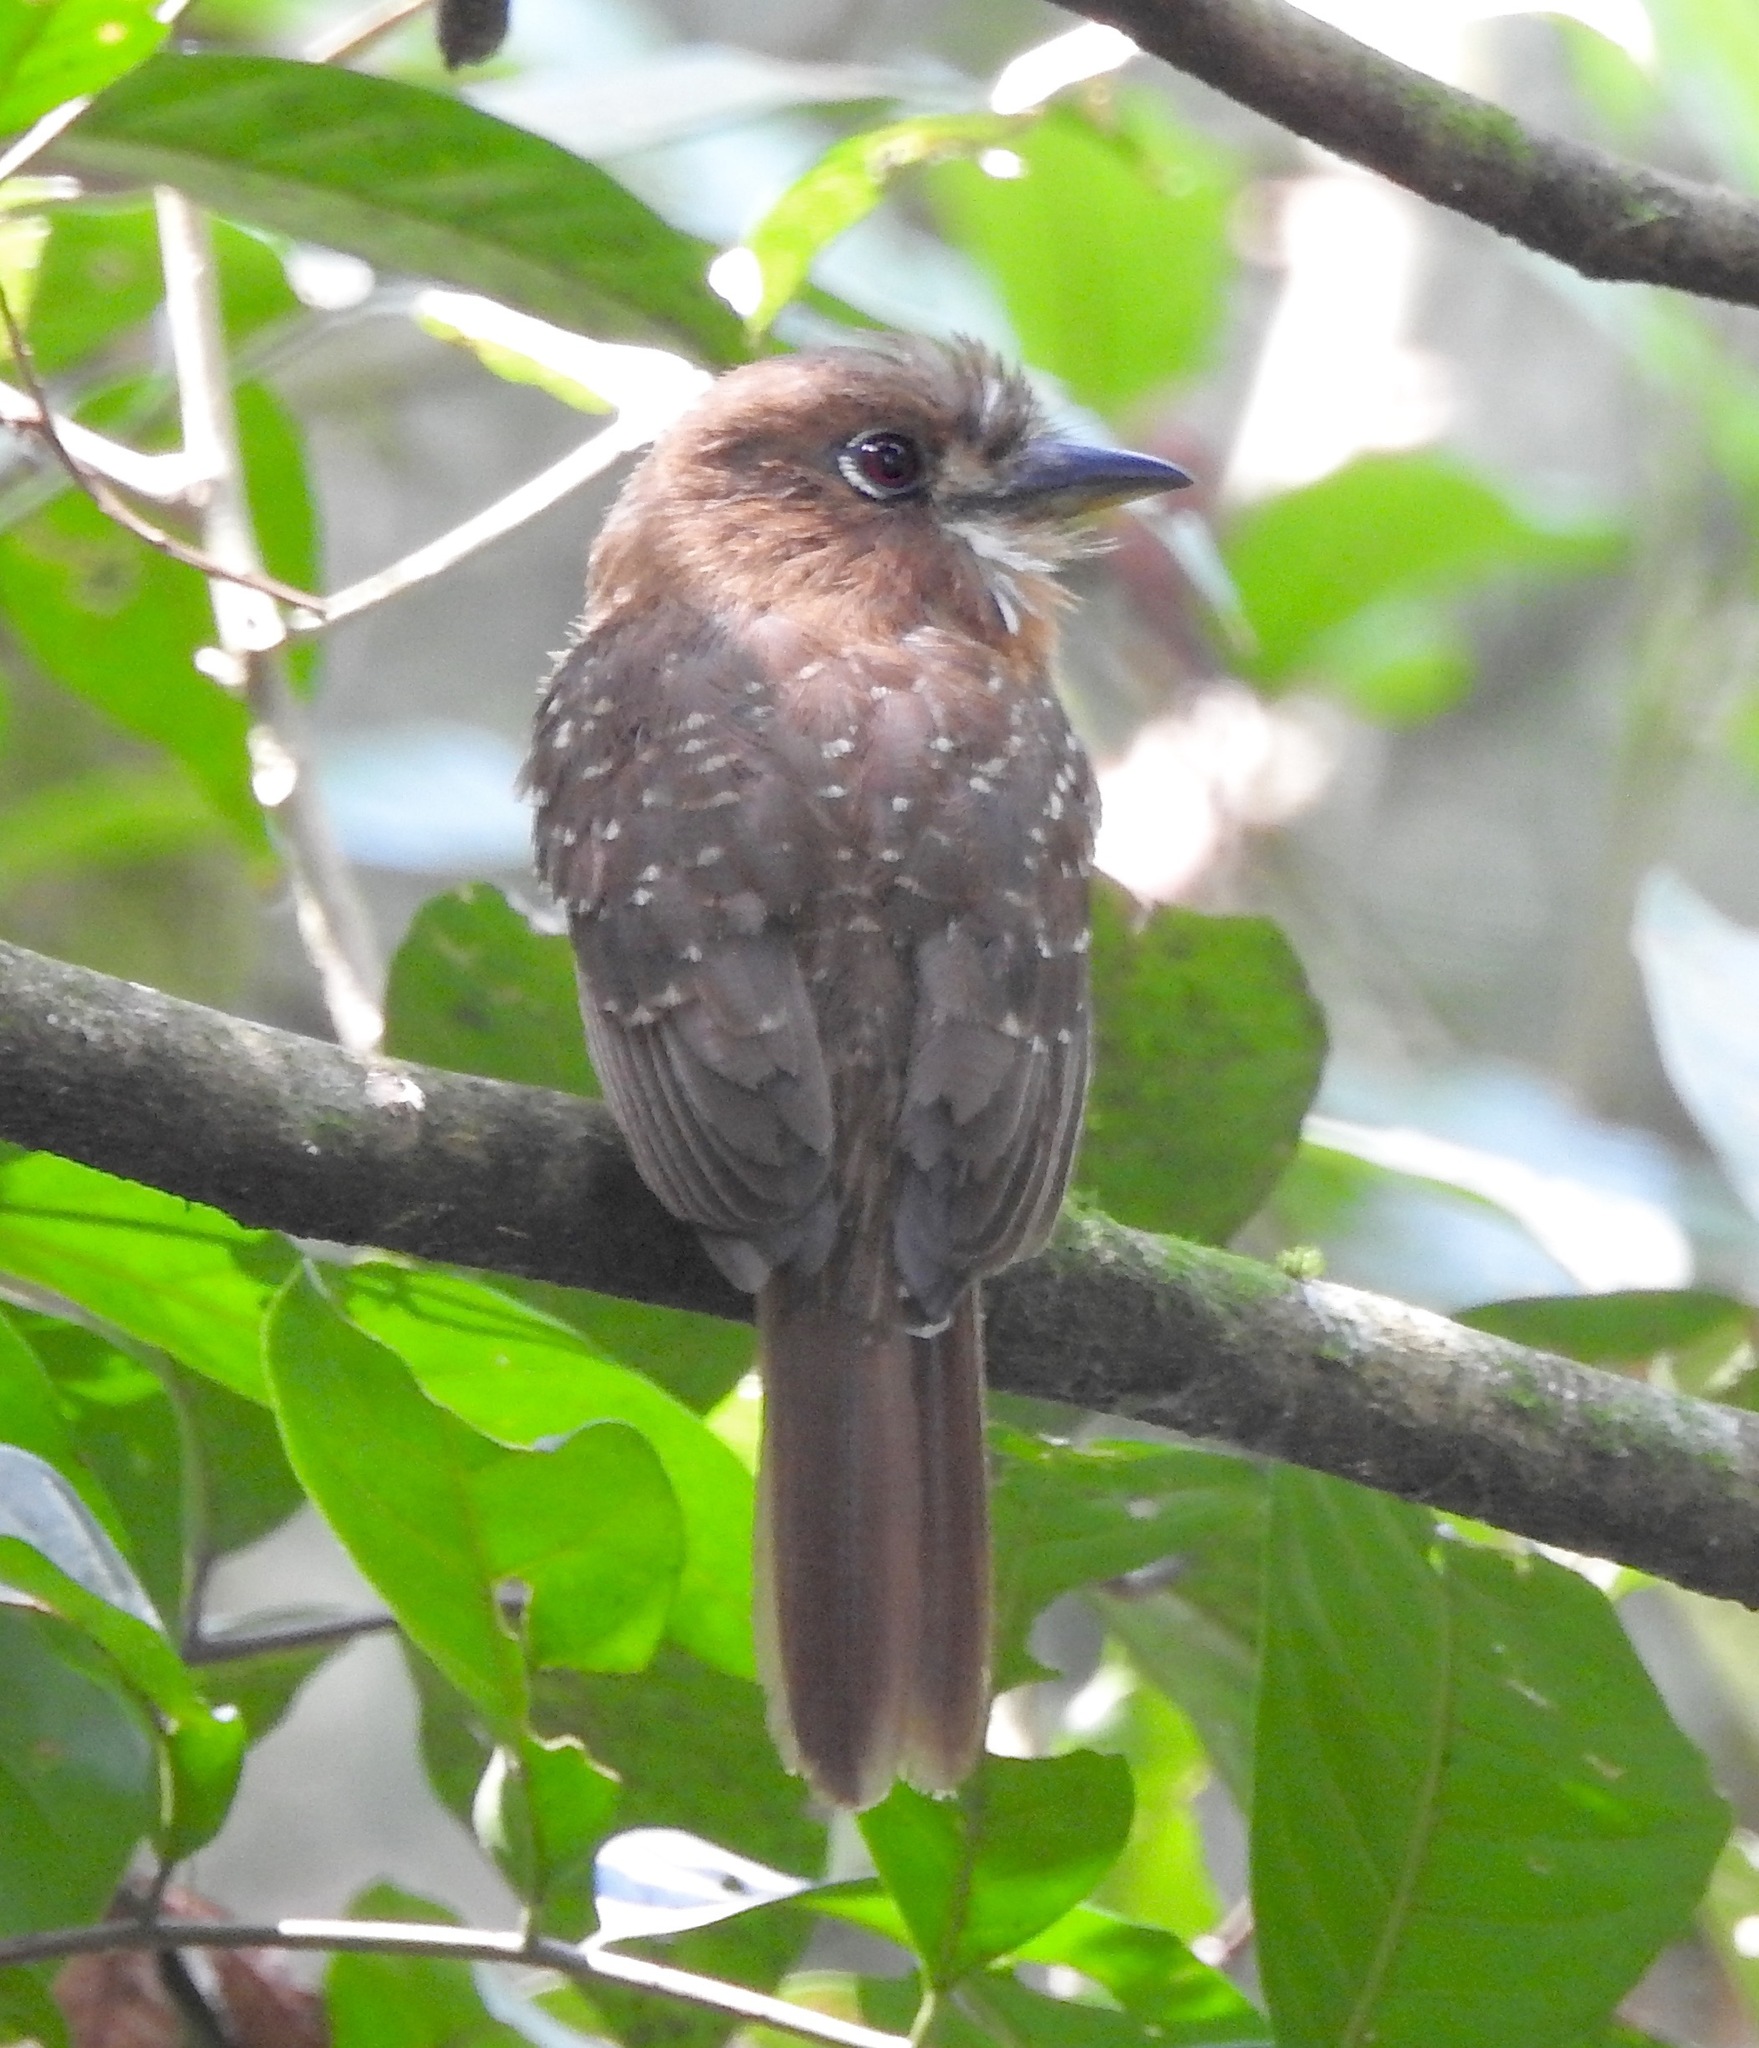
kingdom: Animalia
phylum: Chordata
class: Aves
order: Piciformes
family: Bucconidae
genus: Malacoptila
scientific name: Malacoptila mystacalis
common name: Moustached puffbird
